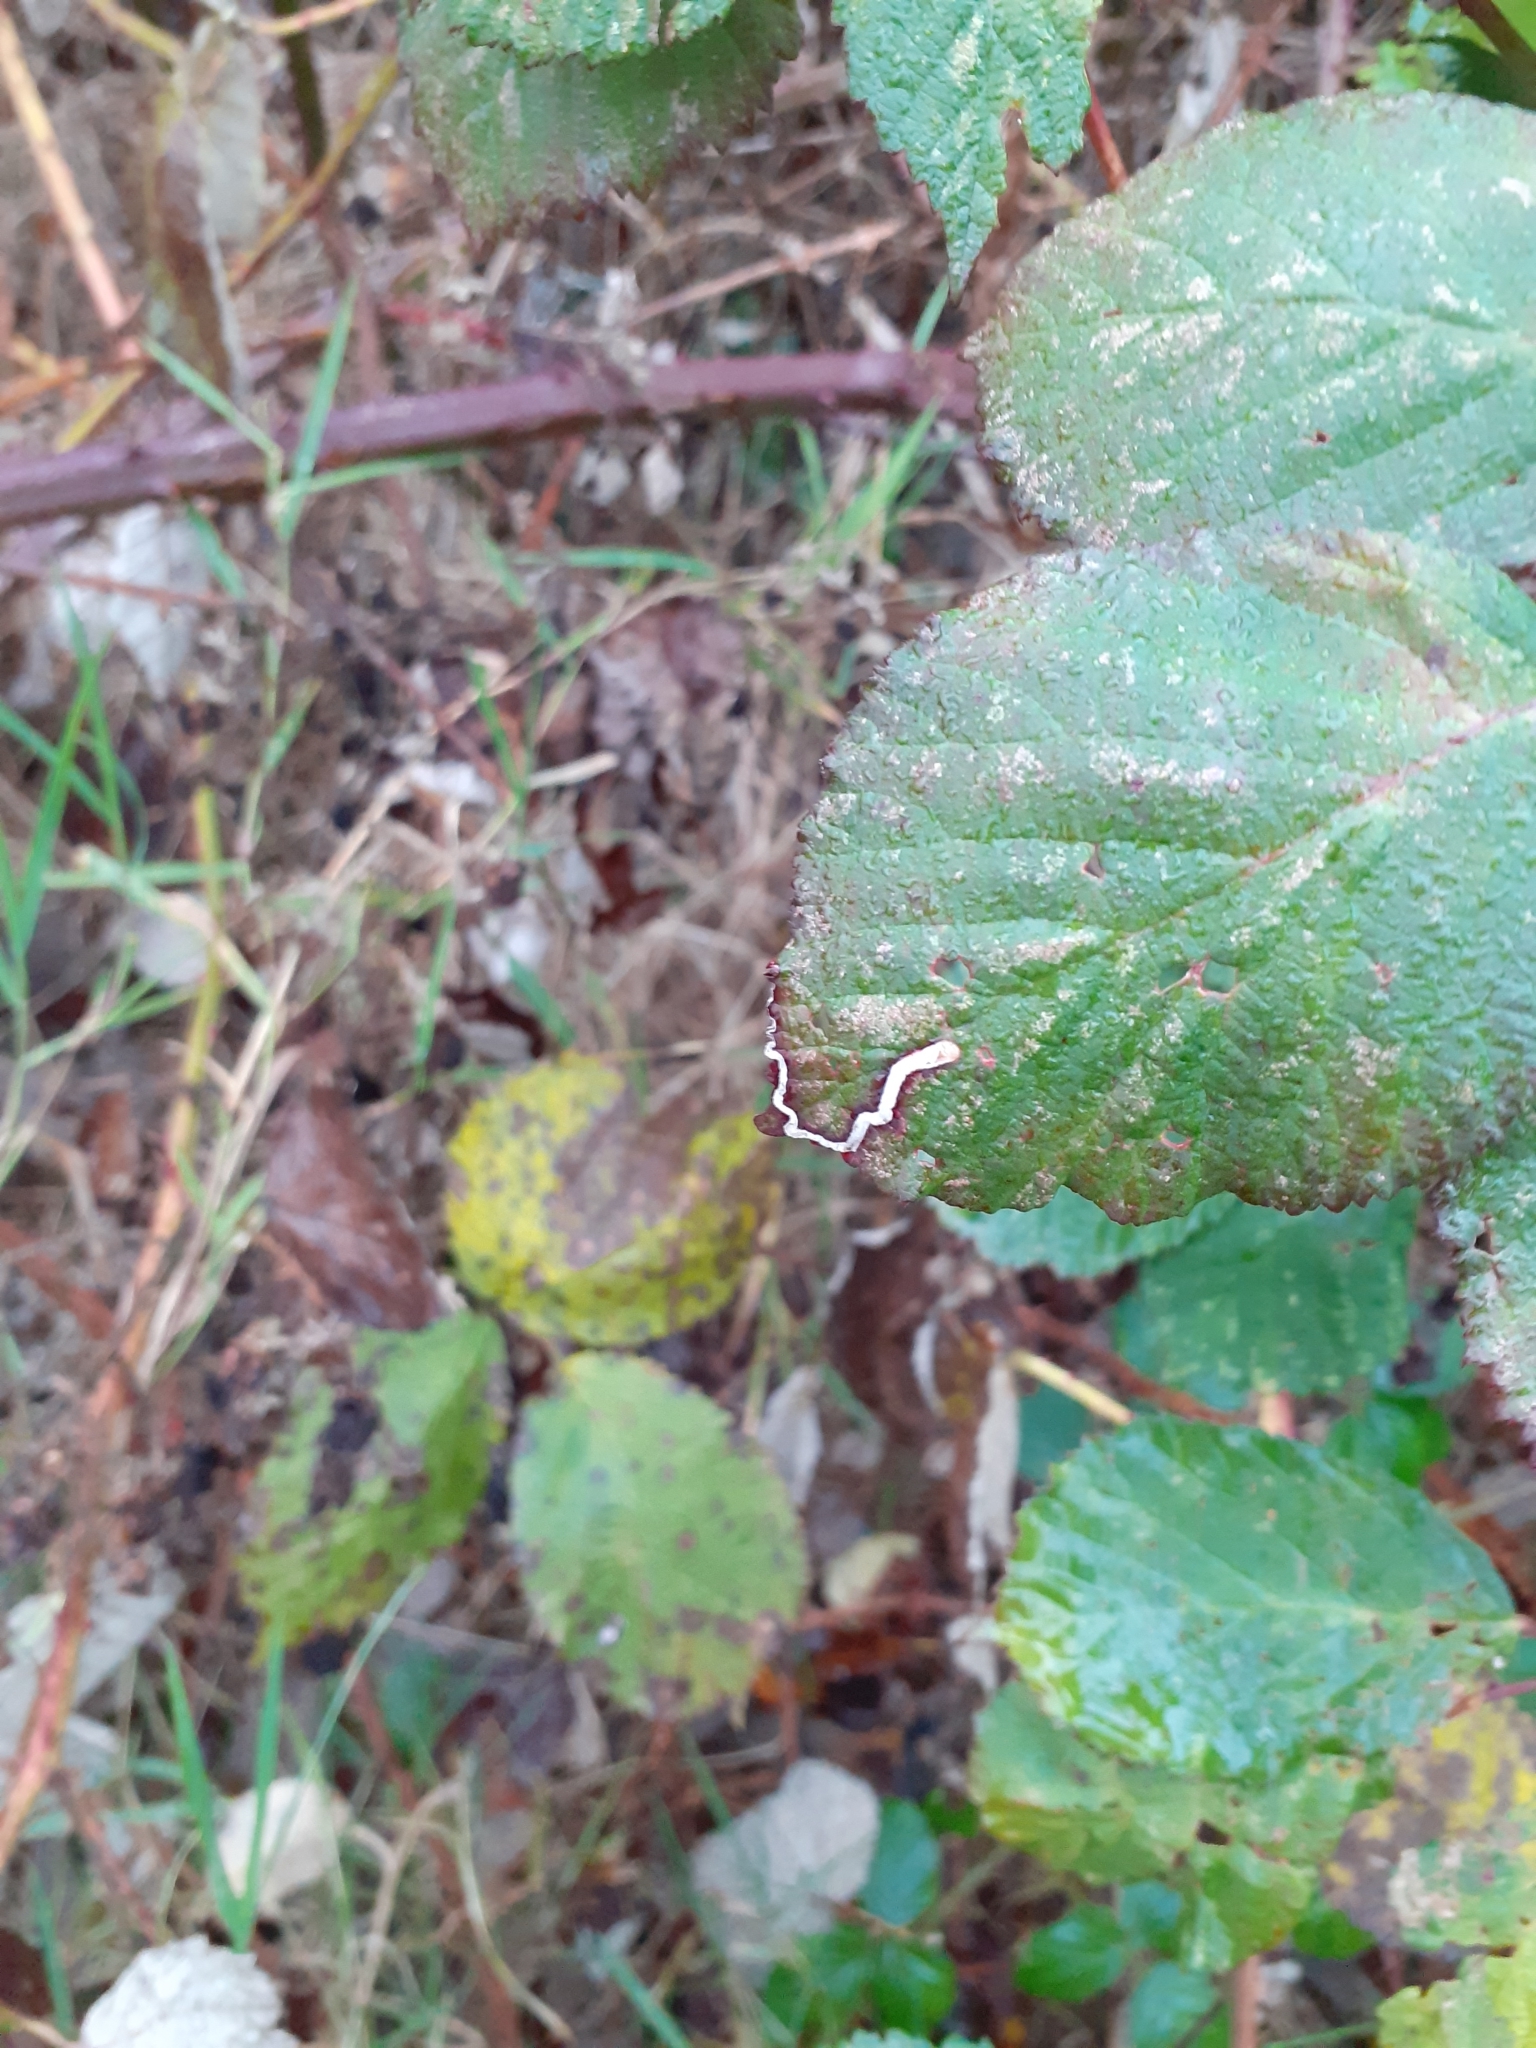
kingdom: Animalia
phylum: Arthropoda
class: Insecta
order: Lepidoptera
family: Nepticulidae
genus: Stigmella
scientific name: Stigmella aurella
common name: Golden pigmy
